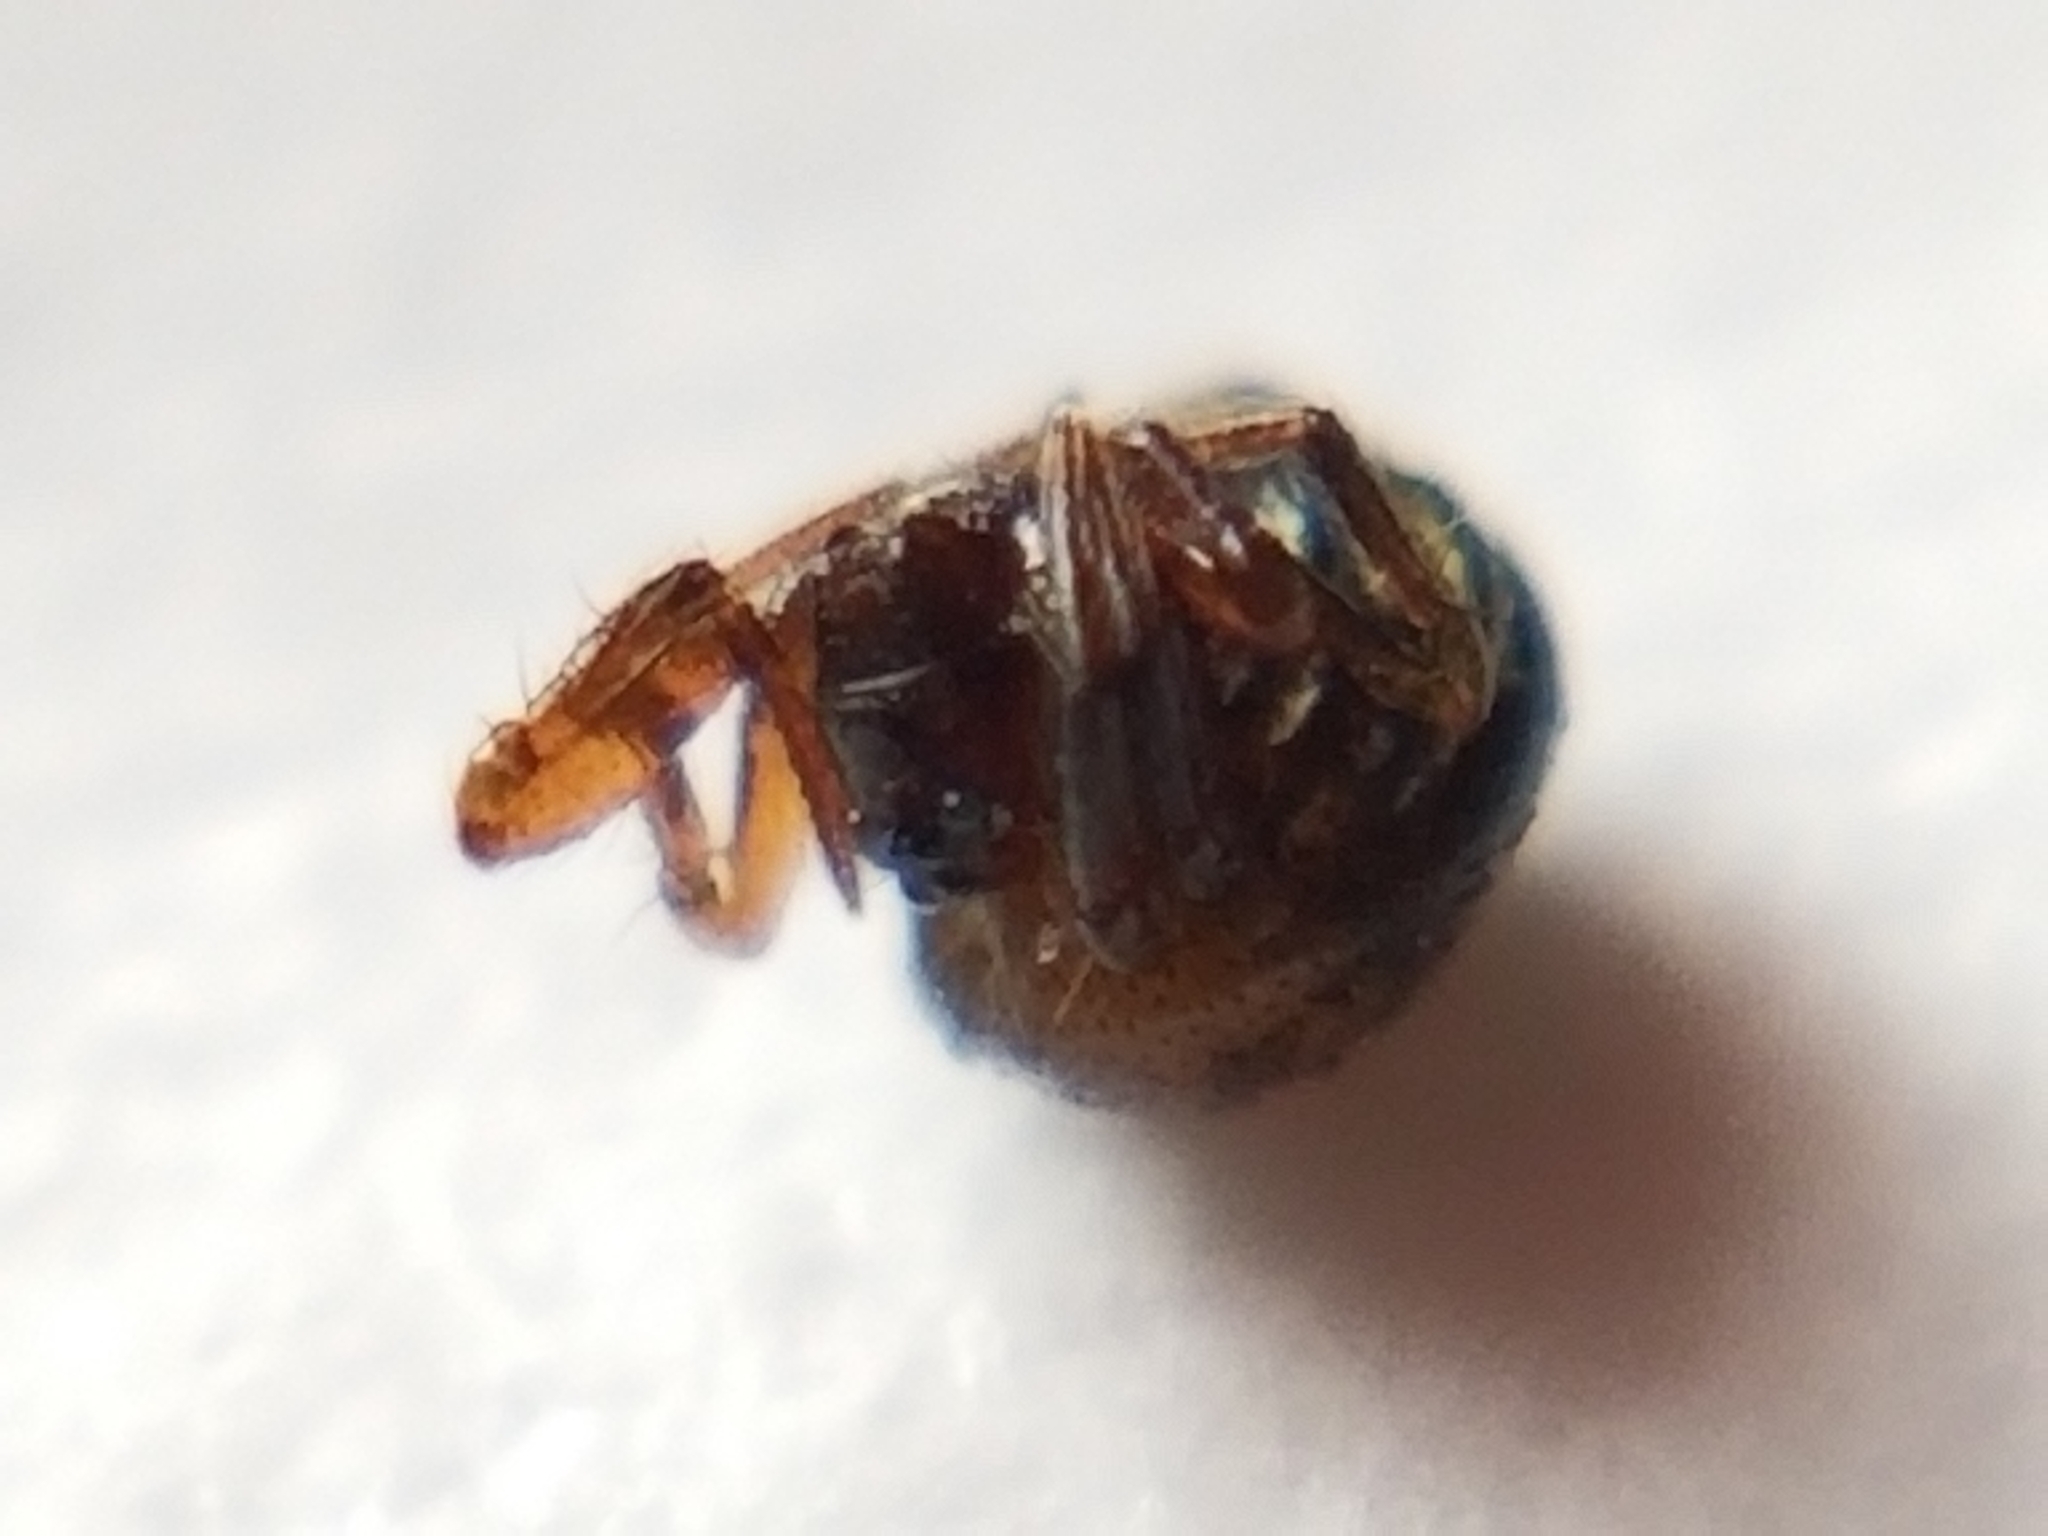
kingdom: Animalia
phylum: Arthropoda
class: Arachnida
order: Araneae
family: Anapidae
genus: Gertschanapis
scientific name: Gertschanapis shantzi
